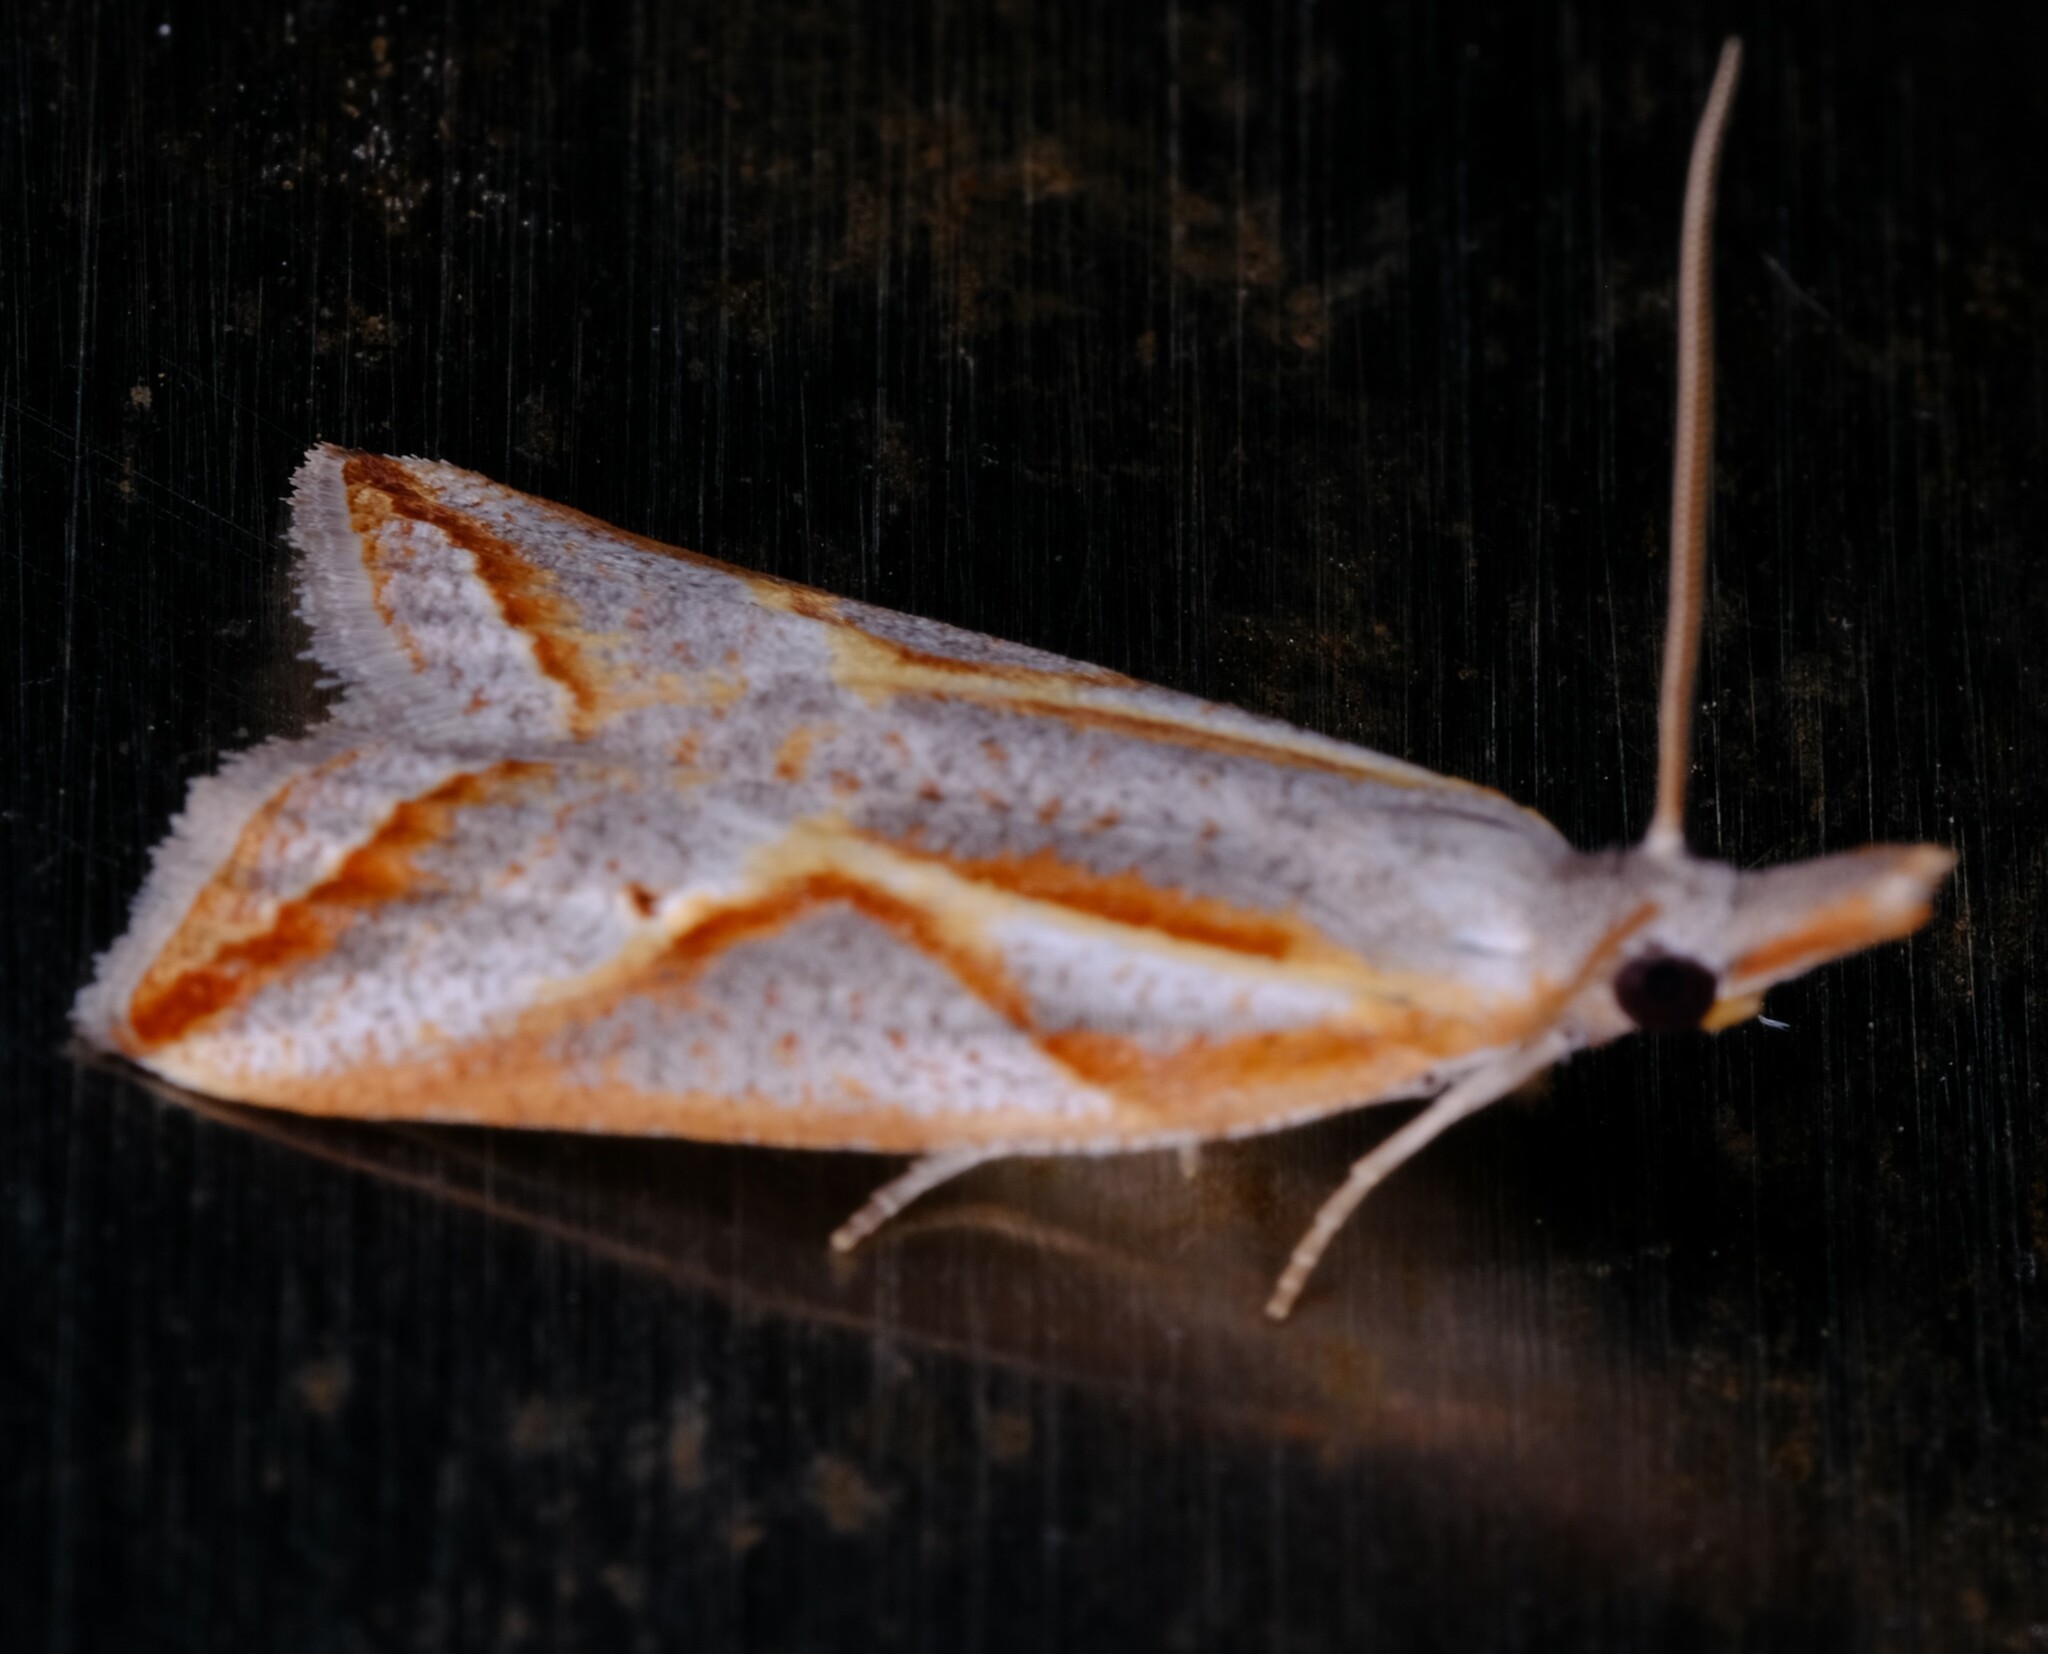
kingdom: Animalia
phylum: Arthropoda
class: Insecta
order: Lepidoptera
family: Tortricidae
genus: Arotrophora
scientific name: Arotrophora arcuatalis
